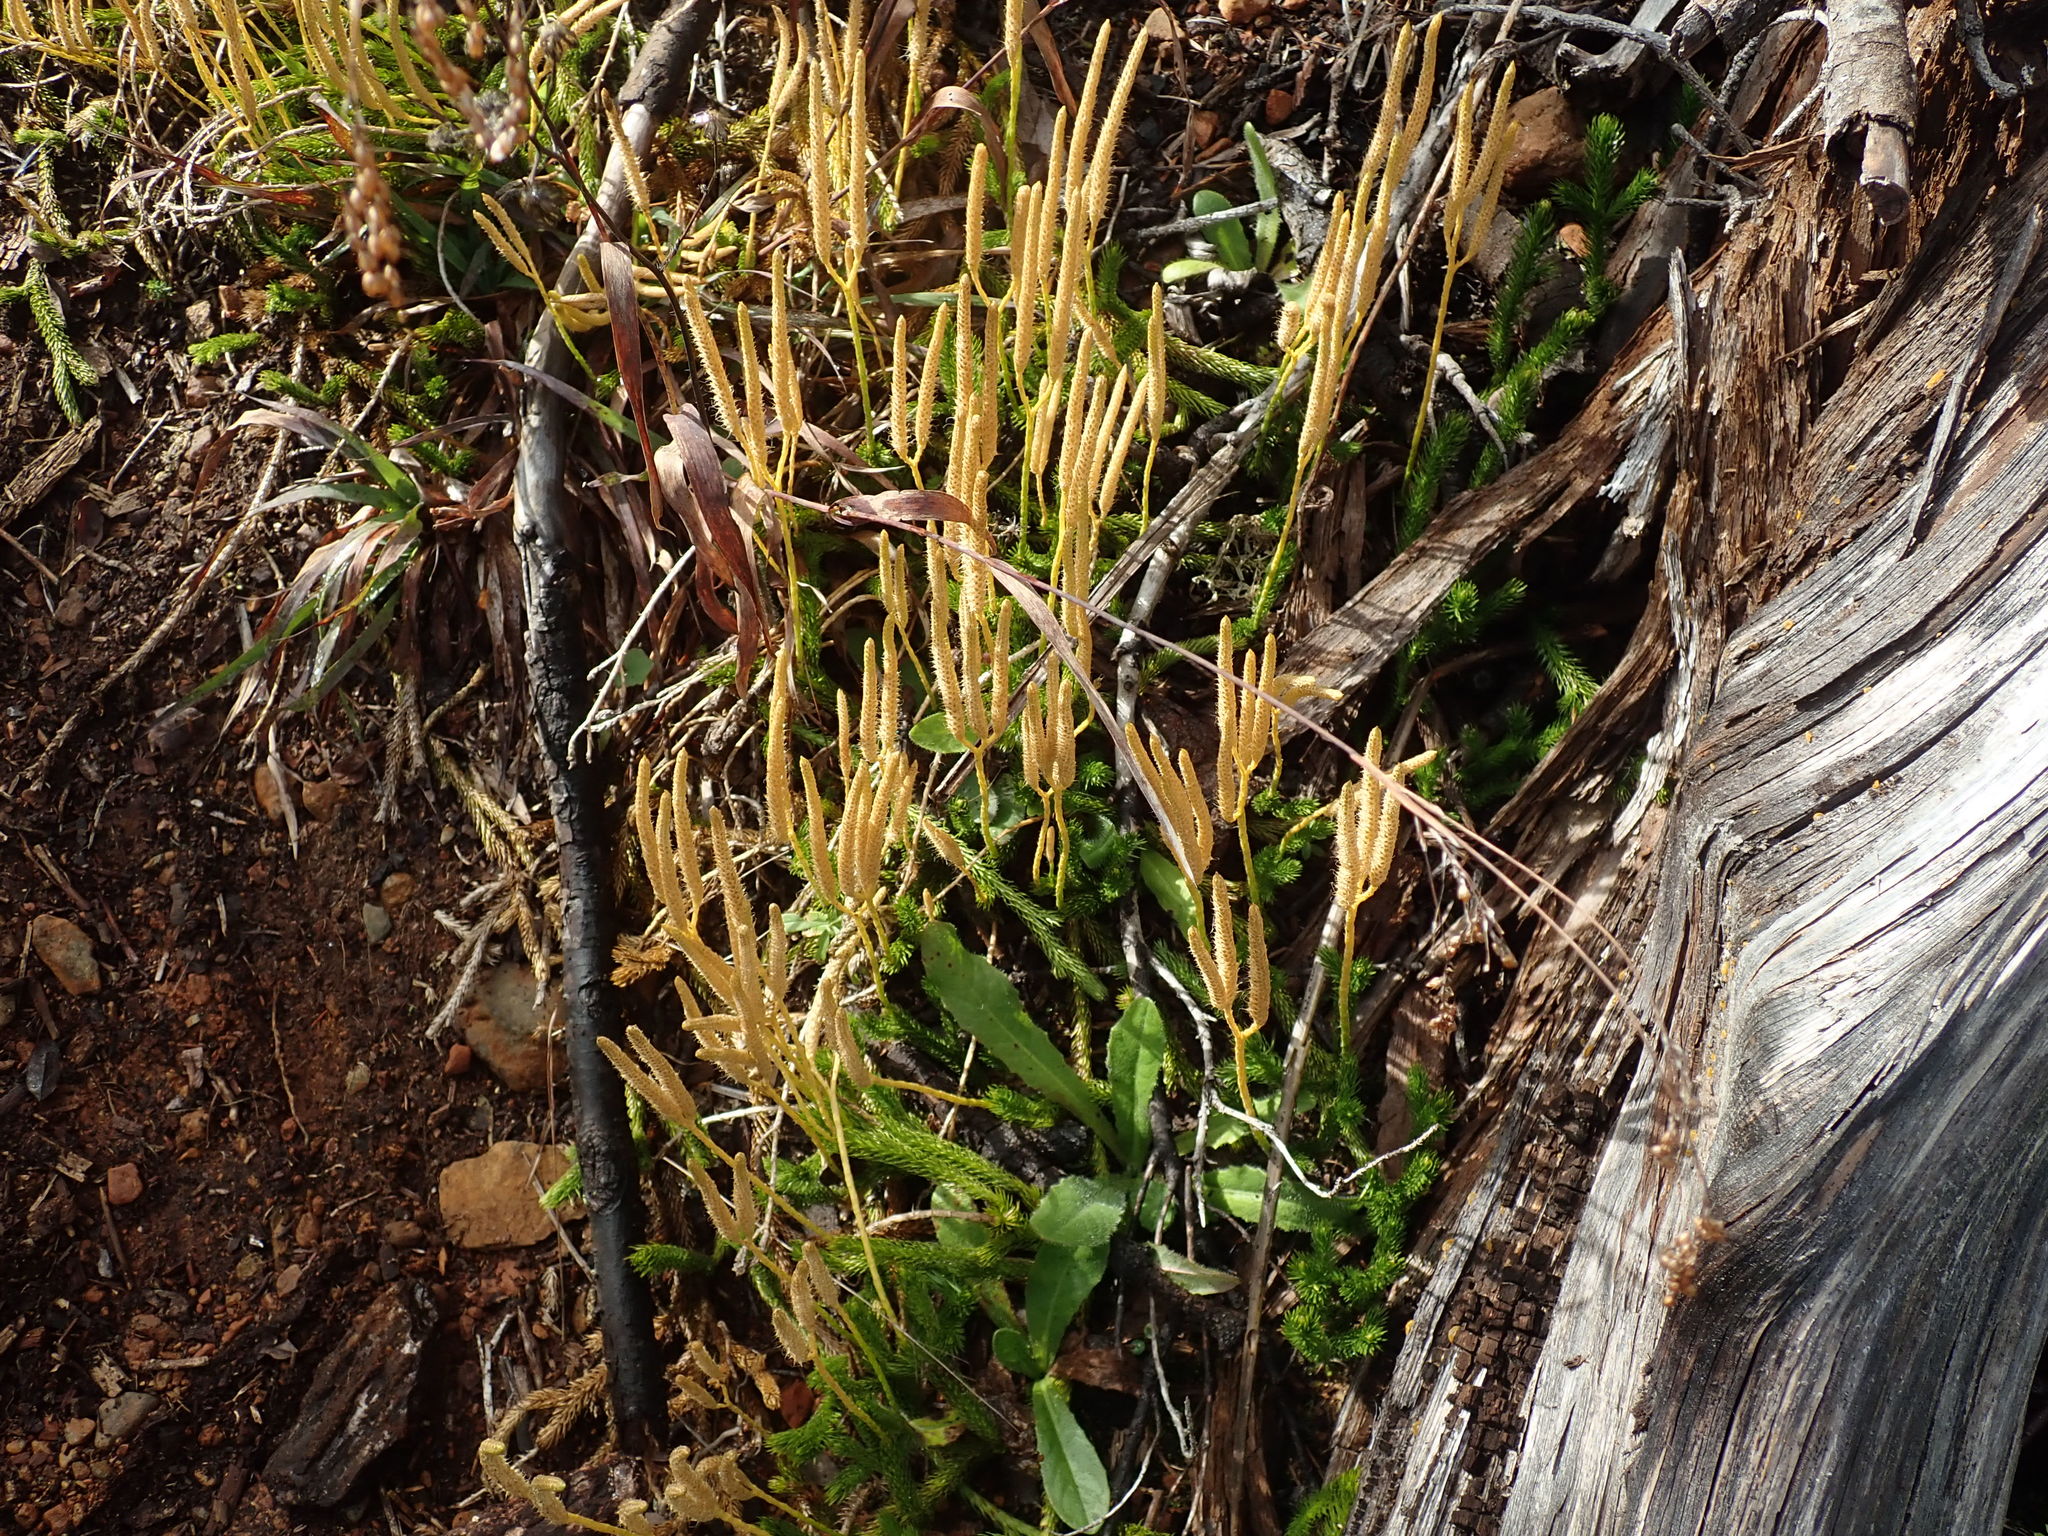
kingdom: Plantae
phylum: Tracheophyta
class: Lycopodiopsida
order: Lycopodiales
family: Lycopodiaceae
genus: Lycopodium
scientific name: Lycopodium clavatum
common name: Stag's-horn clubmoss
